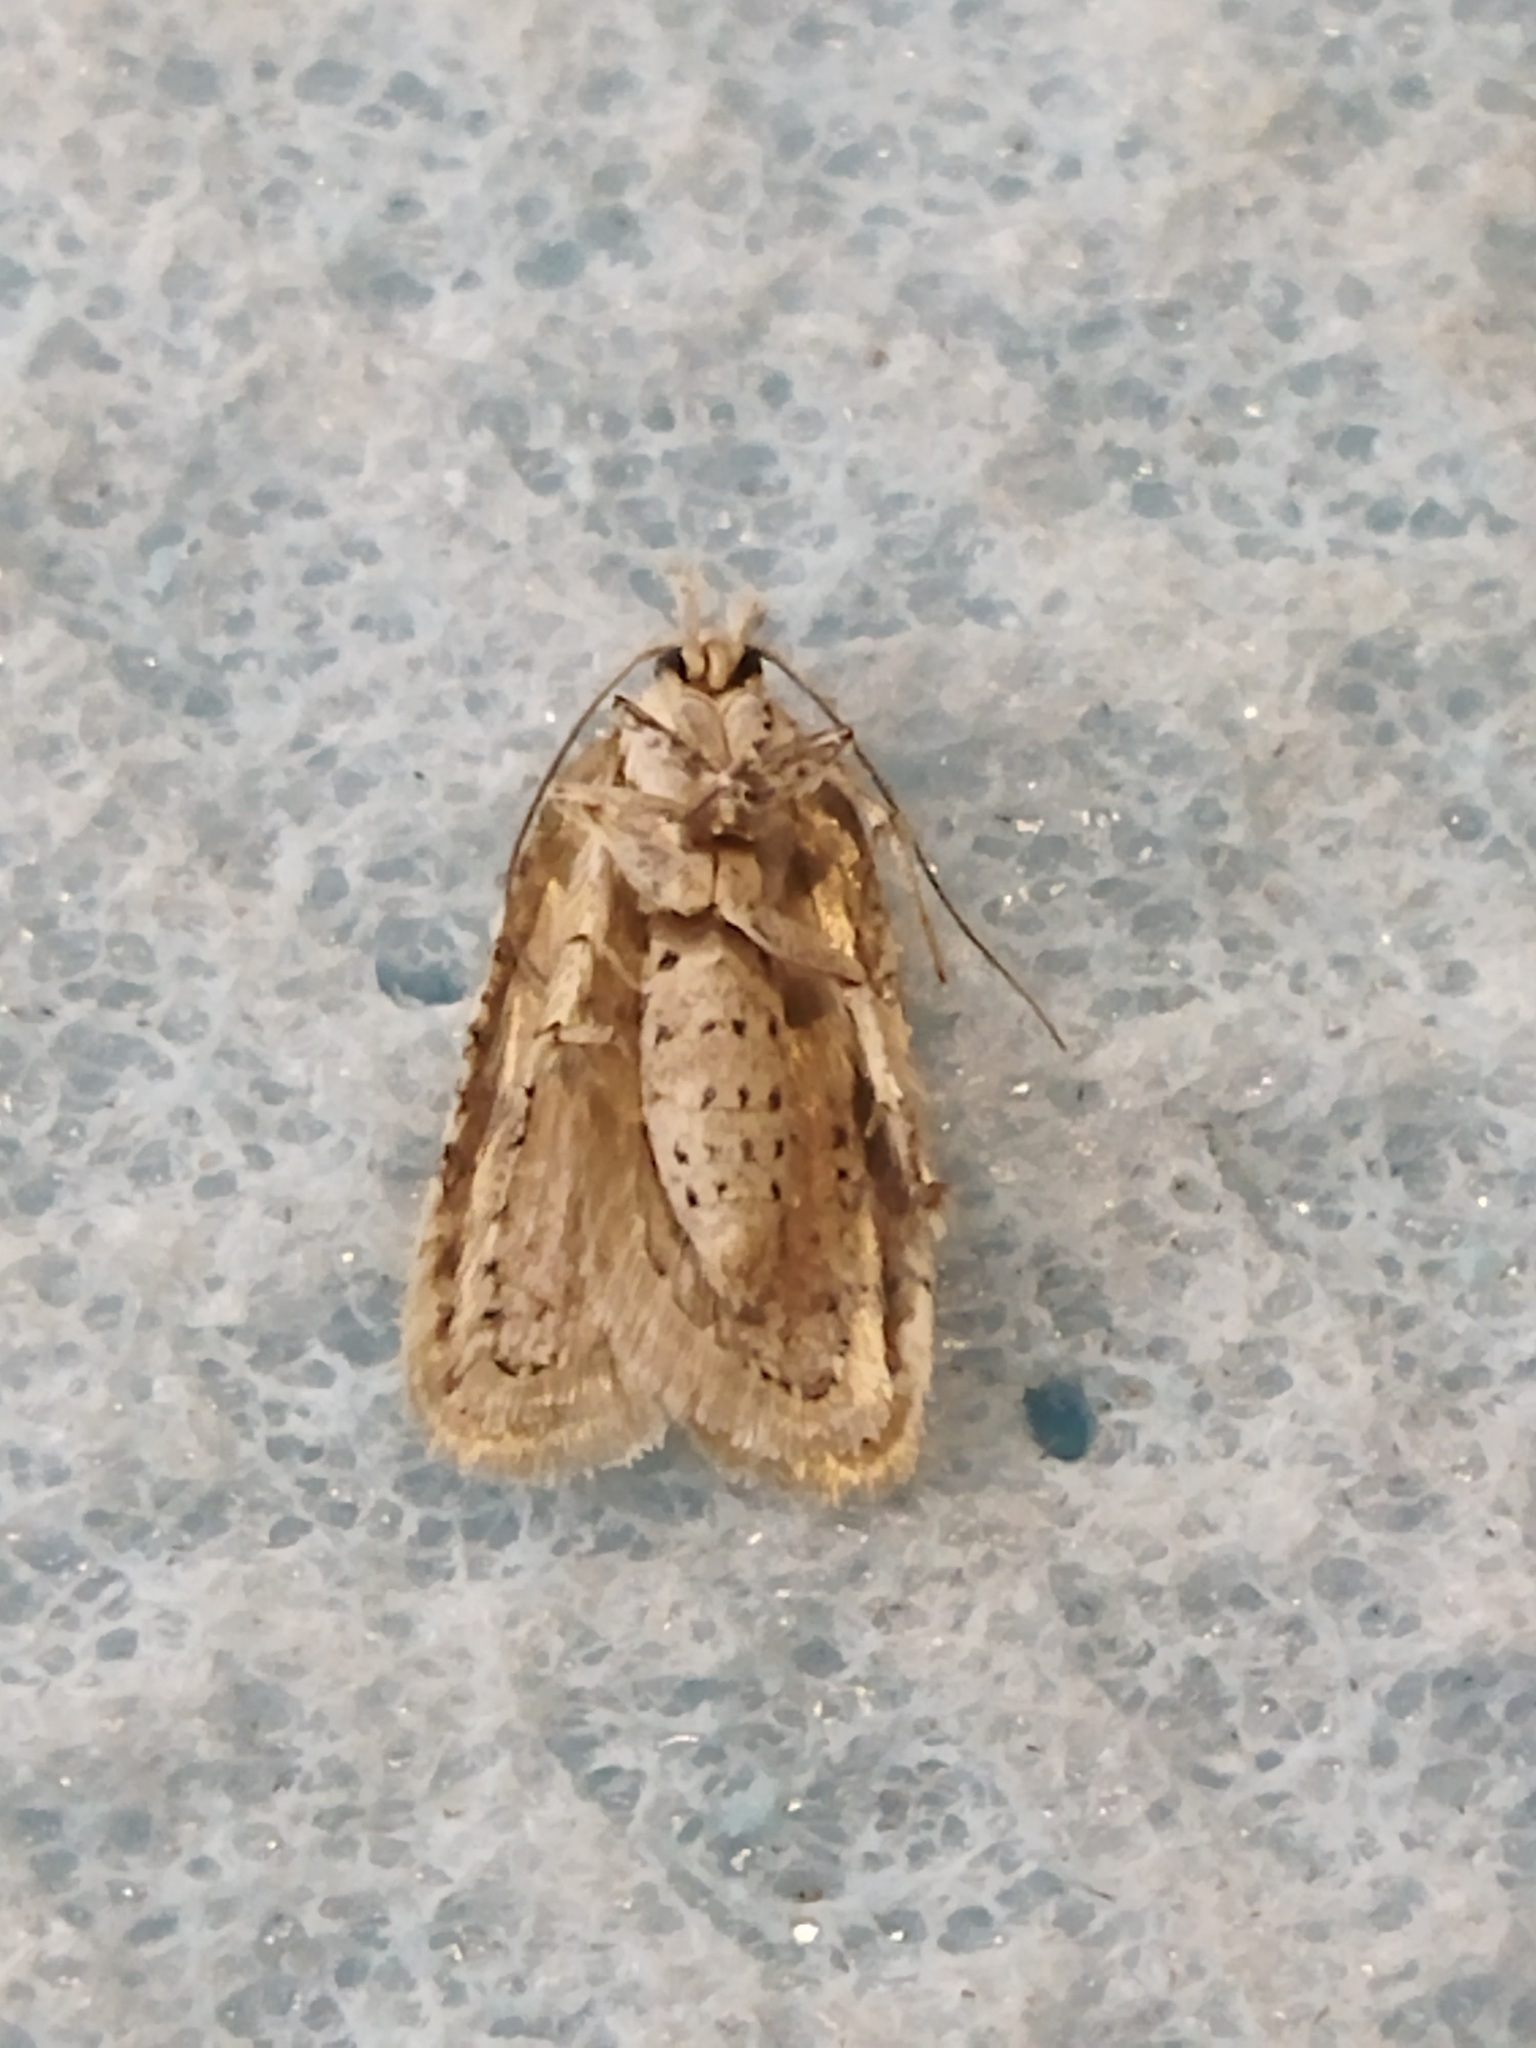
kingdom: Animalia
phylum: Arthropoda
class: Insecta
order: Lepidoptera
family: Depressariidae
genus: Agonopterix
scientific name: Agonopterix alstroemeriana
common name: Moth
